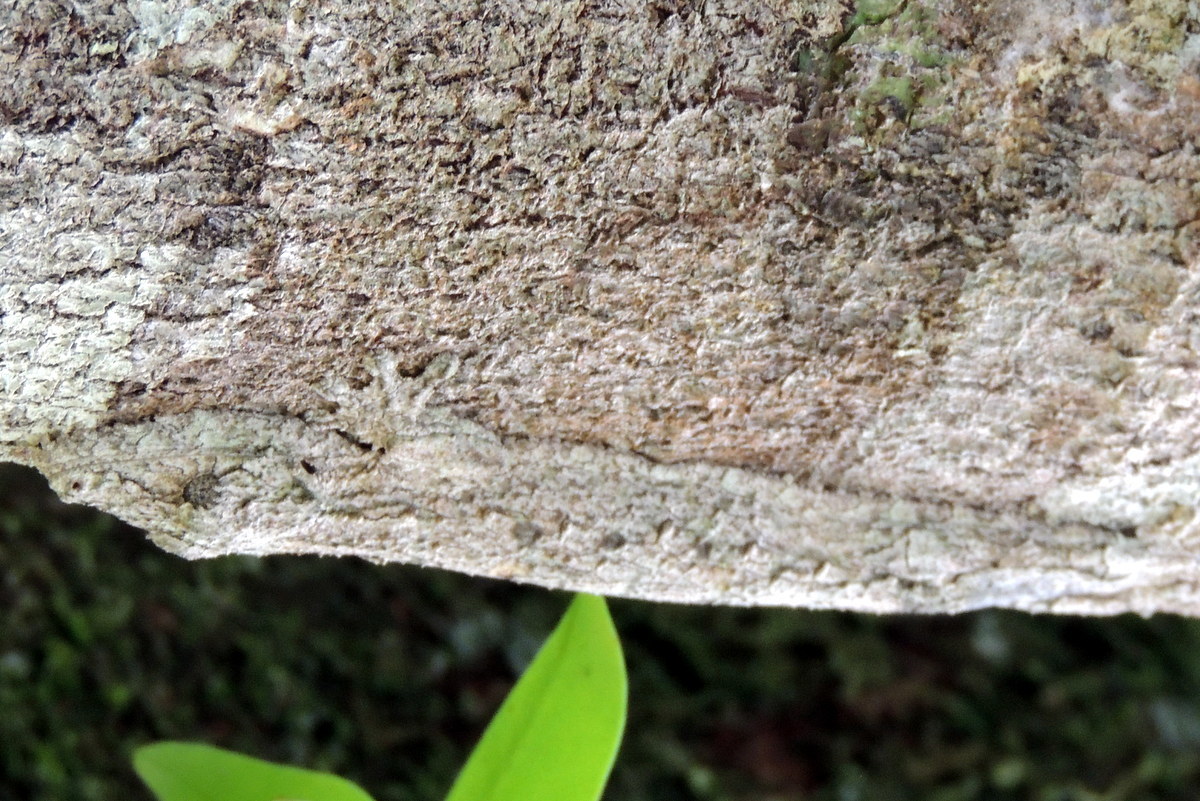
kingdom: Animalia
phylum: Chordata
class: Squamata
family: Gekkonidae
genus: Uroplatus
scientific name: Uroplatus sikorae
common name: Southern flat-tail gecko
